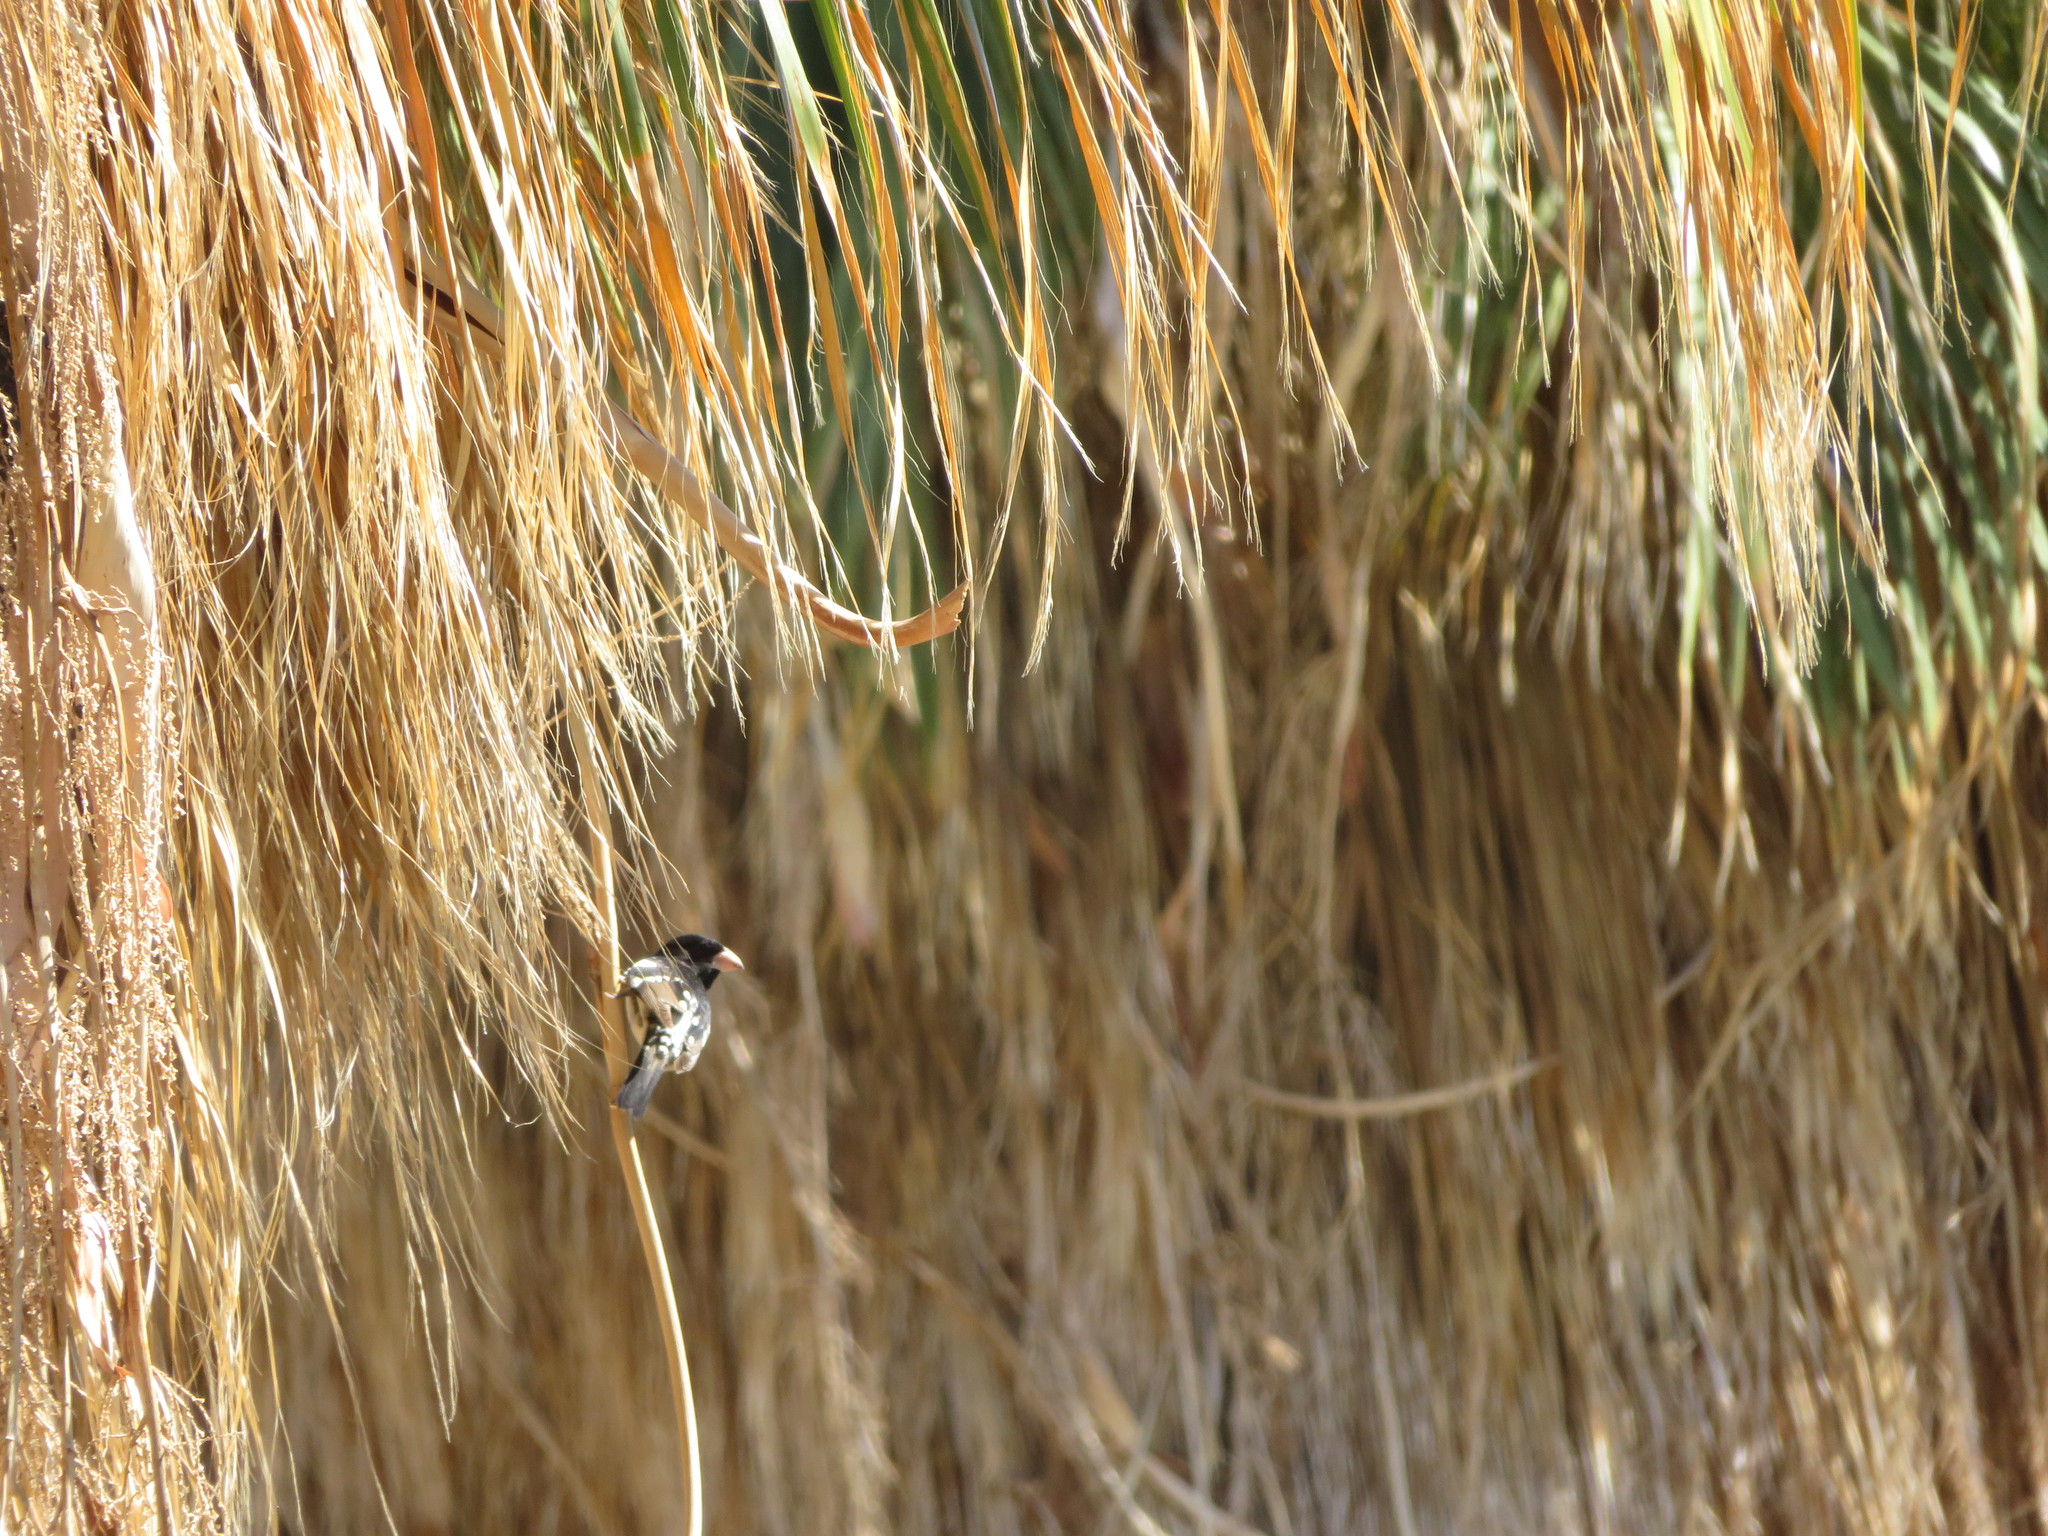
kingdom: Animalia
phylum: Chordata
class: Aves
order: Passeriformes
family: Cardinalidae
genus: Pheucticus
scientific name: Pheucticus ludovicianus
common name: Rose-breasted grosbeak
